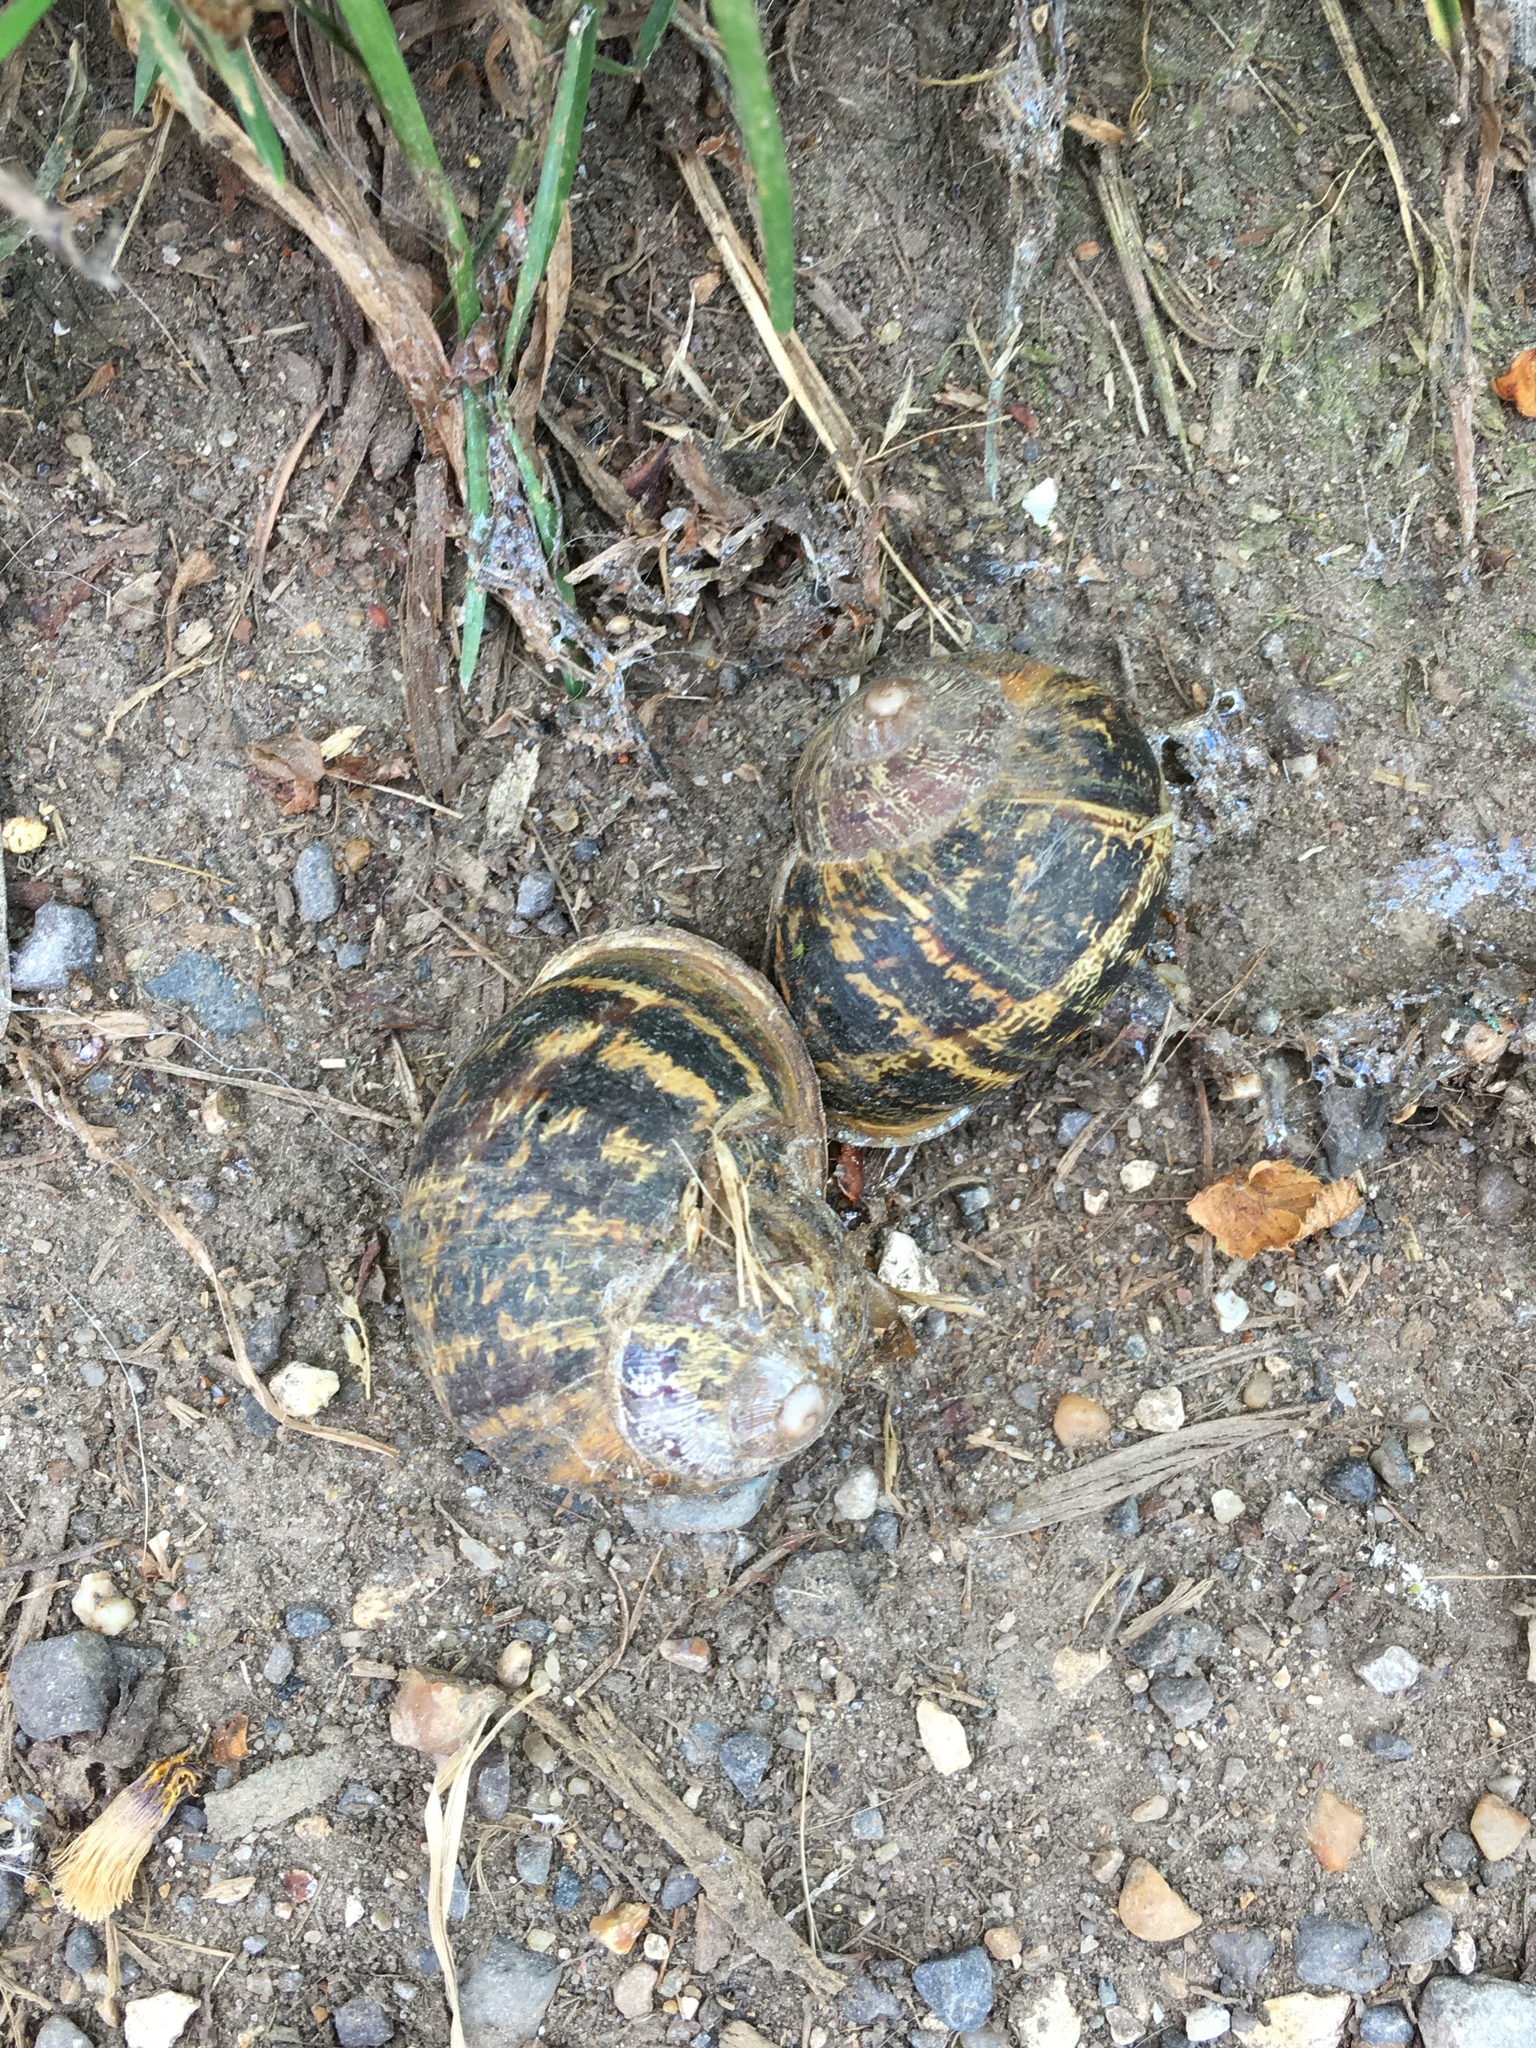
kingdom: Animalia
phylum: Mollusca
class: Gastropoda
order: Stylommatophora
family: Helicidae
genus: Cornu
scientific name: Cornu aspersum
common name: Brown garden snail
